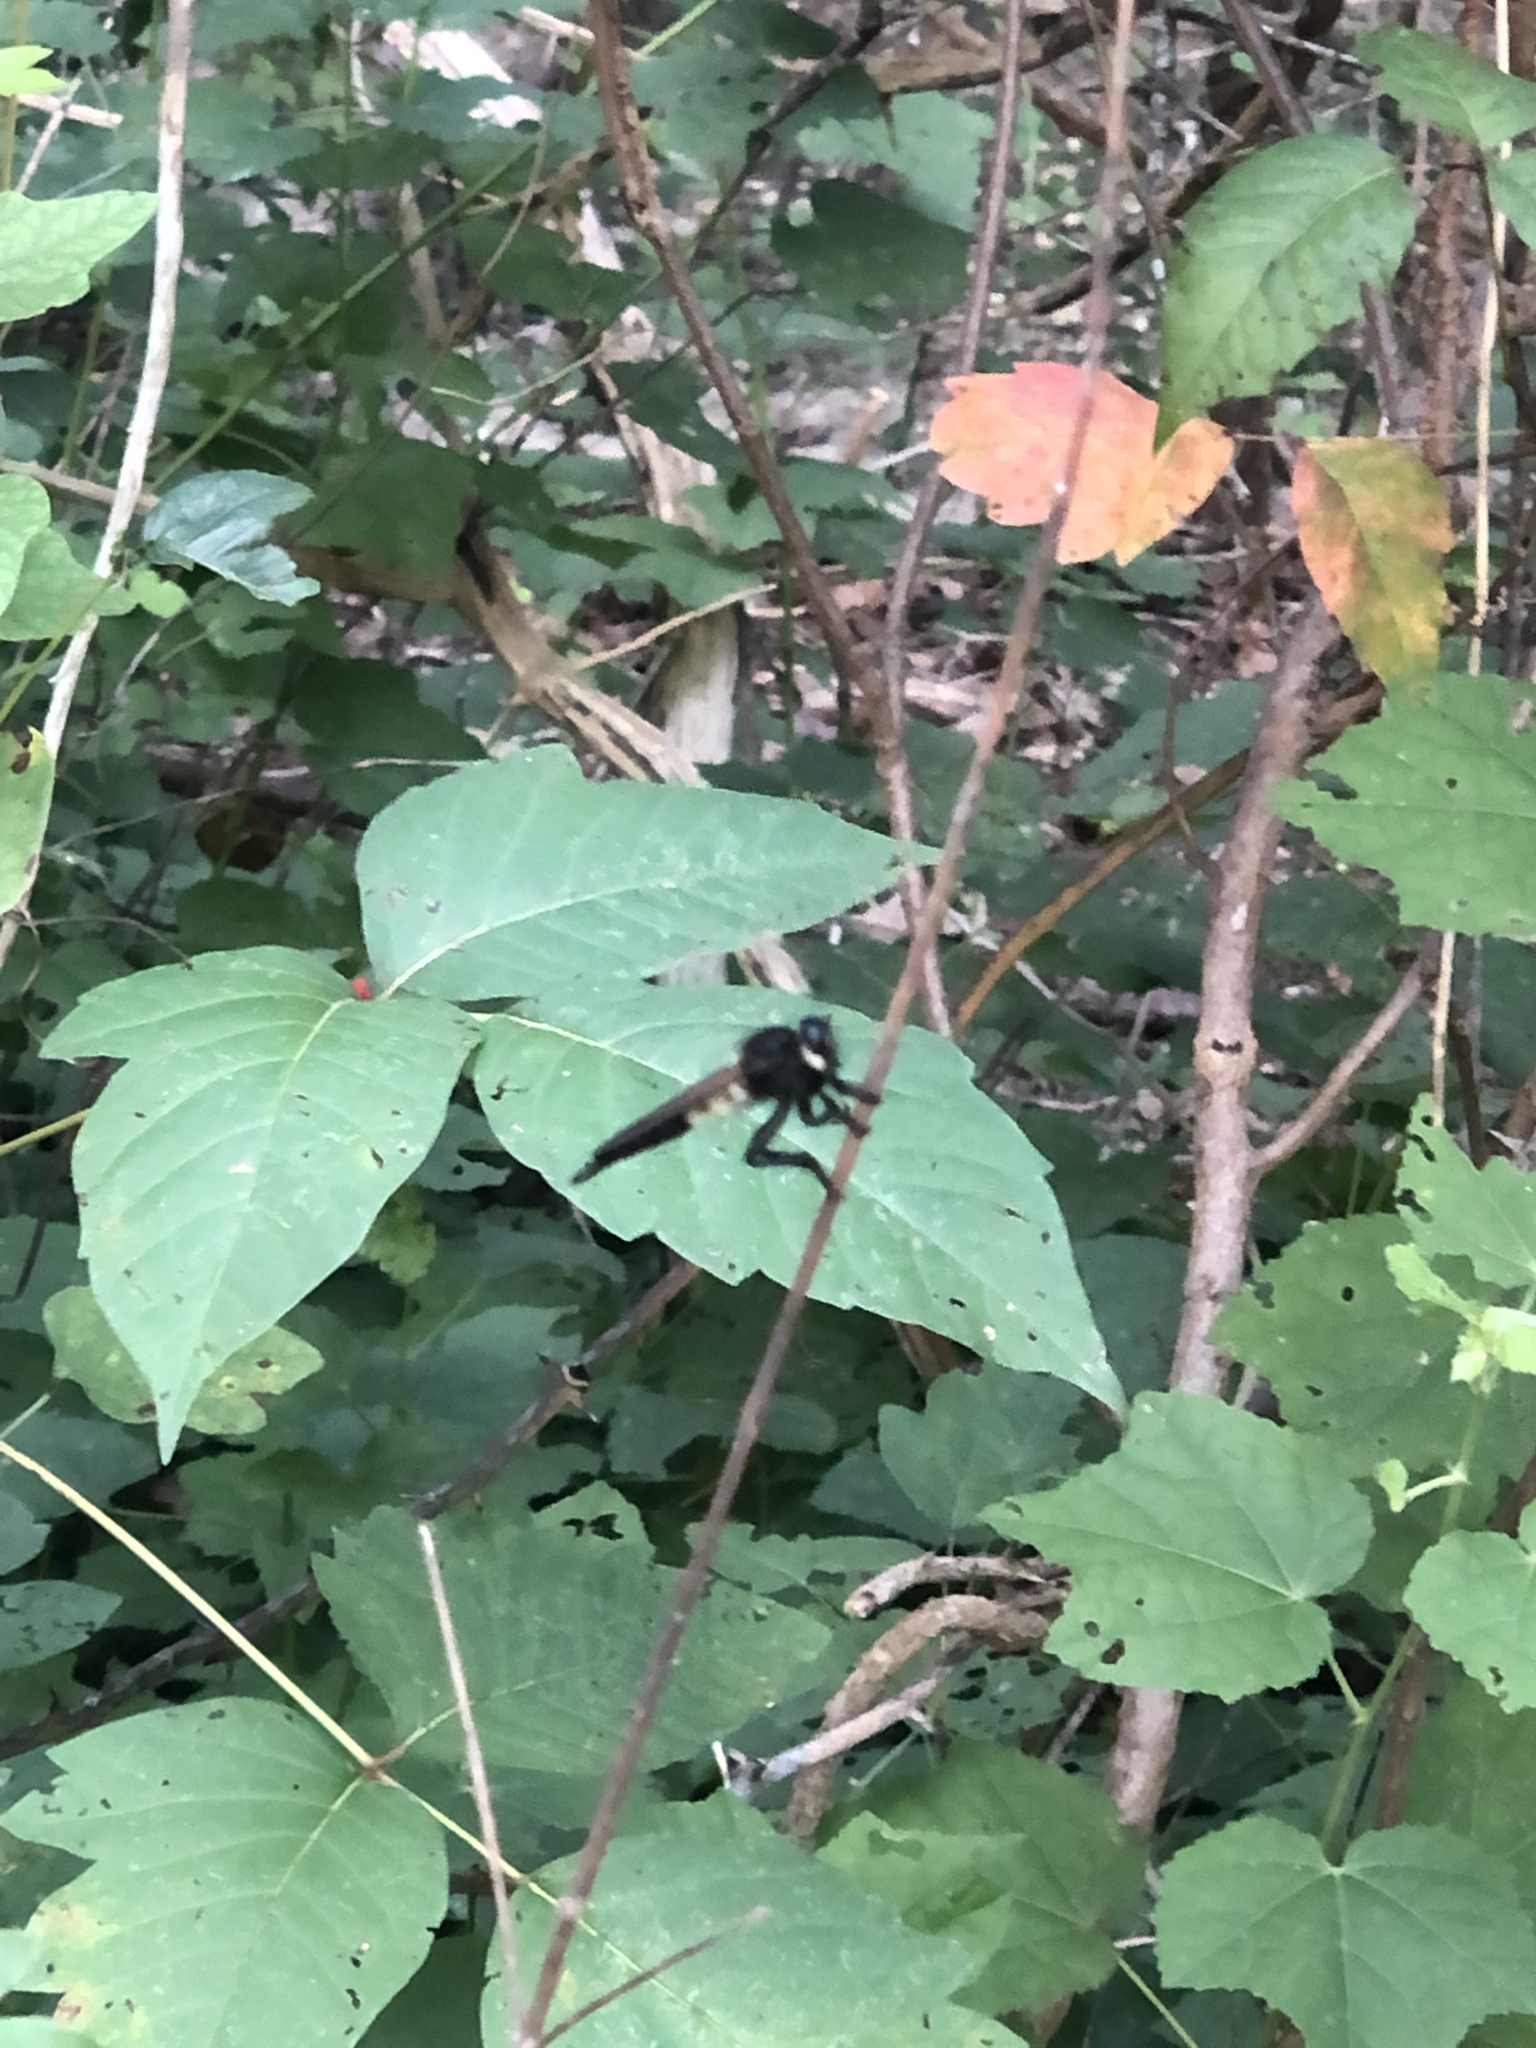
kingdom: Animalia
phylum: Arthropoda
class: Insecta
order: Diptera
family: Asilidae
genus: Promachus
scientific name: Promachus painteri
